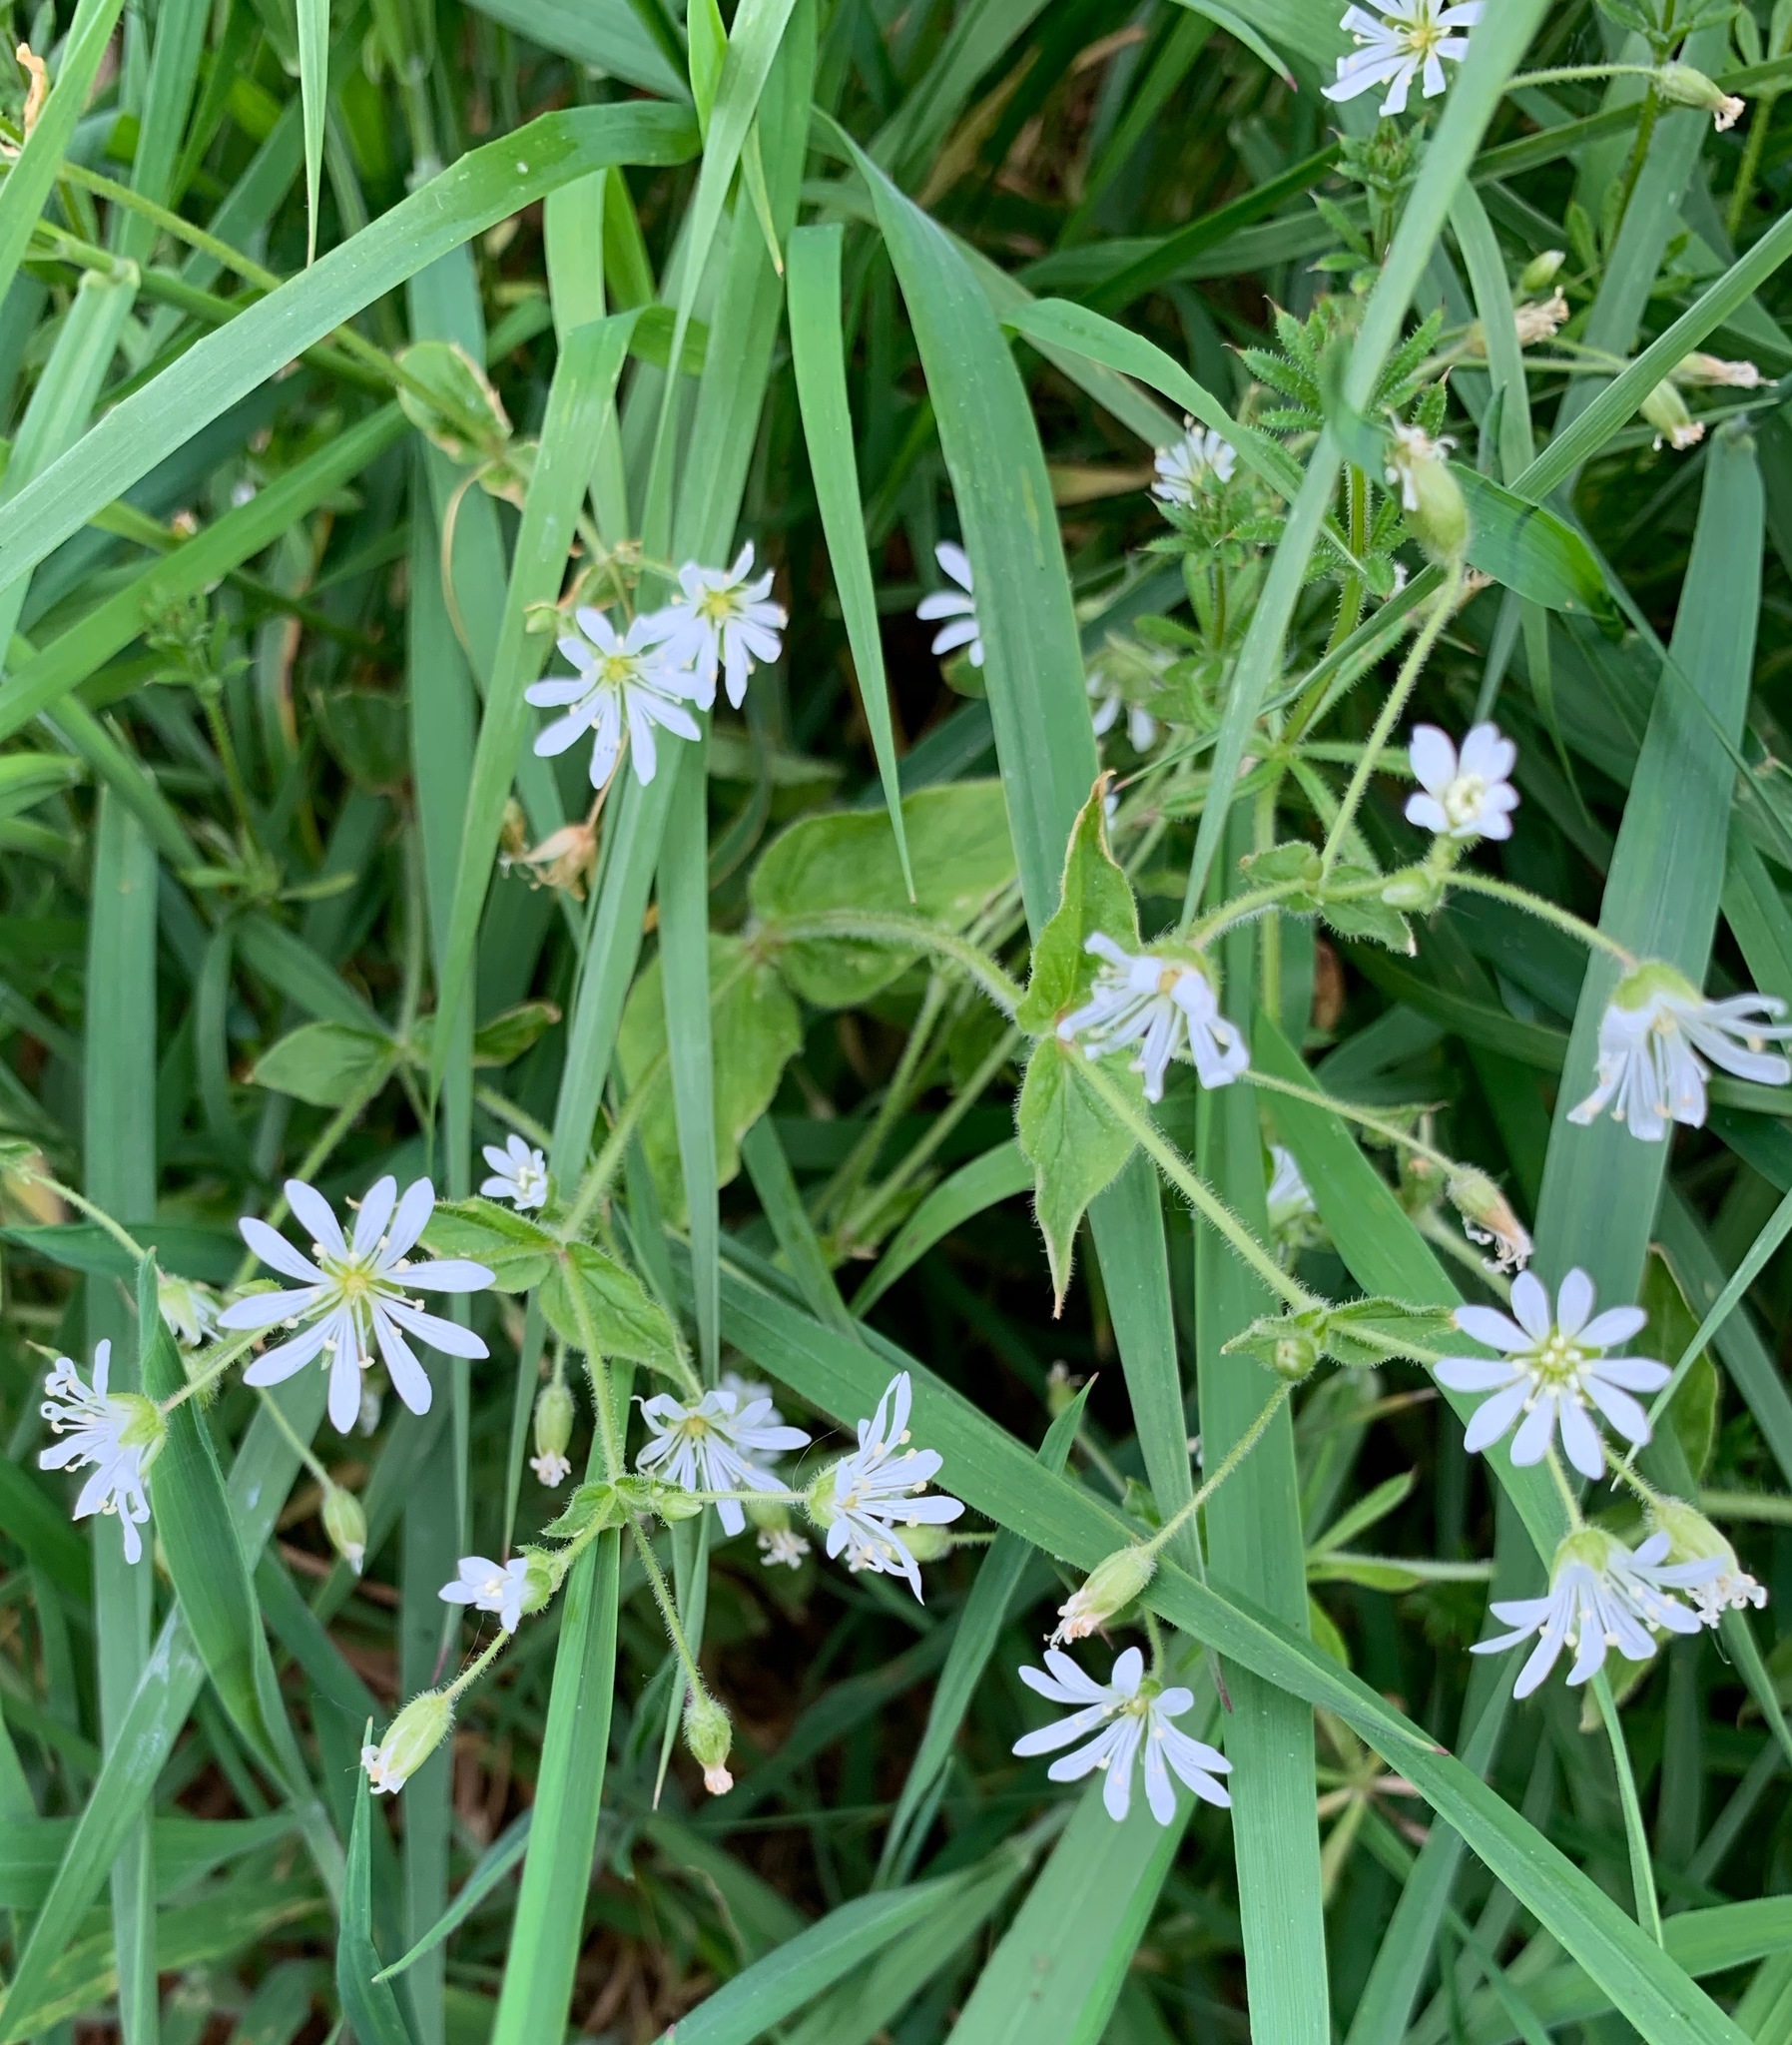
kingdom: Plantae
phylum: Tracheophyta
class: Magnoliopsida
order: Caryophyllales
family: Caryophyllaceae
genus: Stellaria
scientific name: Stellaria nemorum
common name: Wood stitchwort
